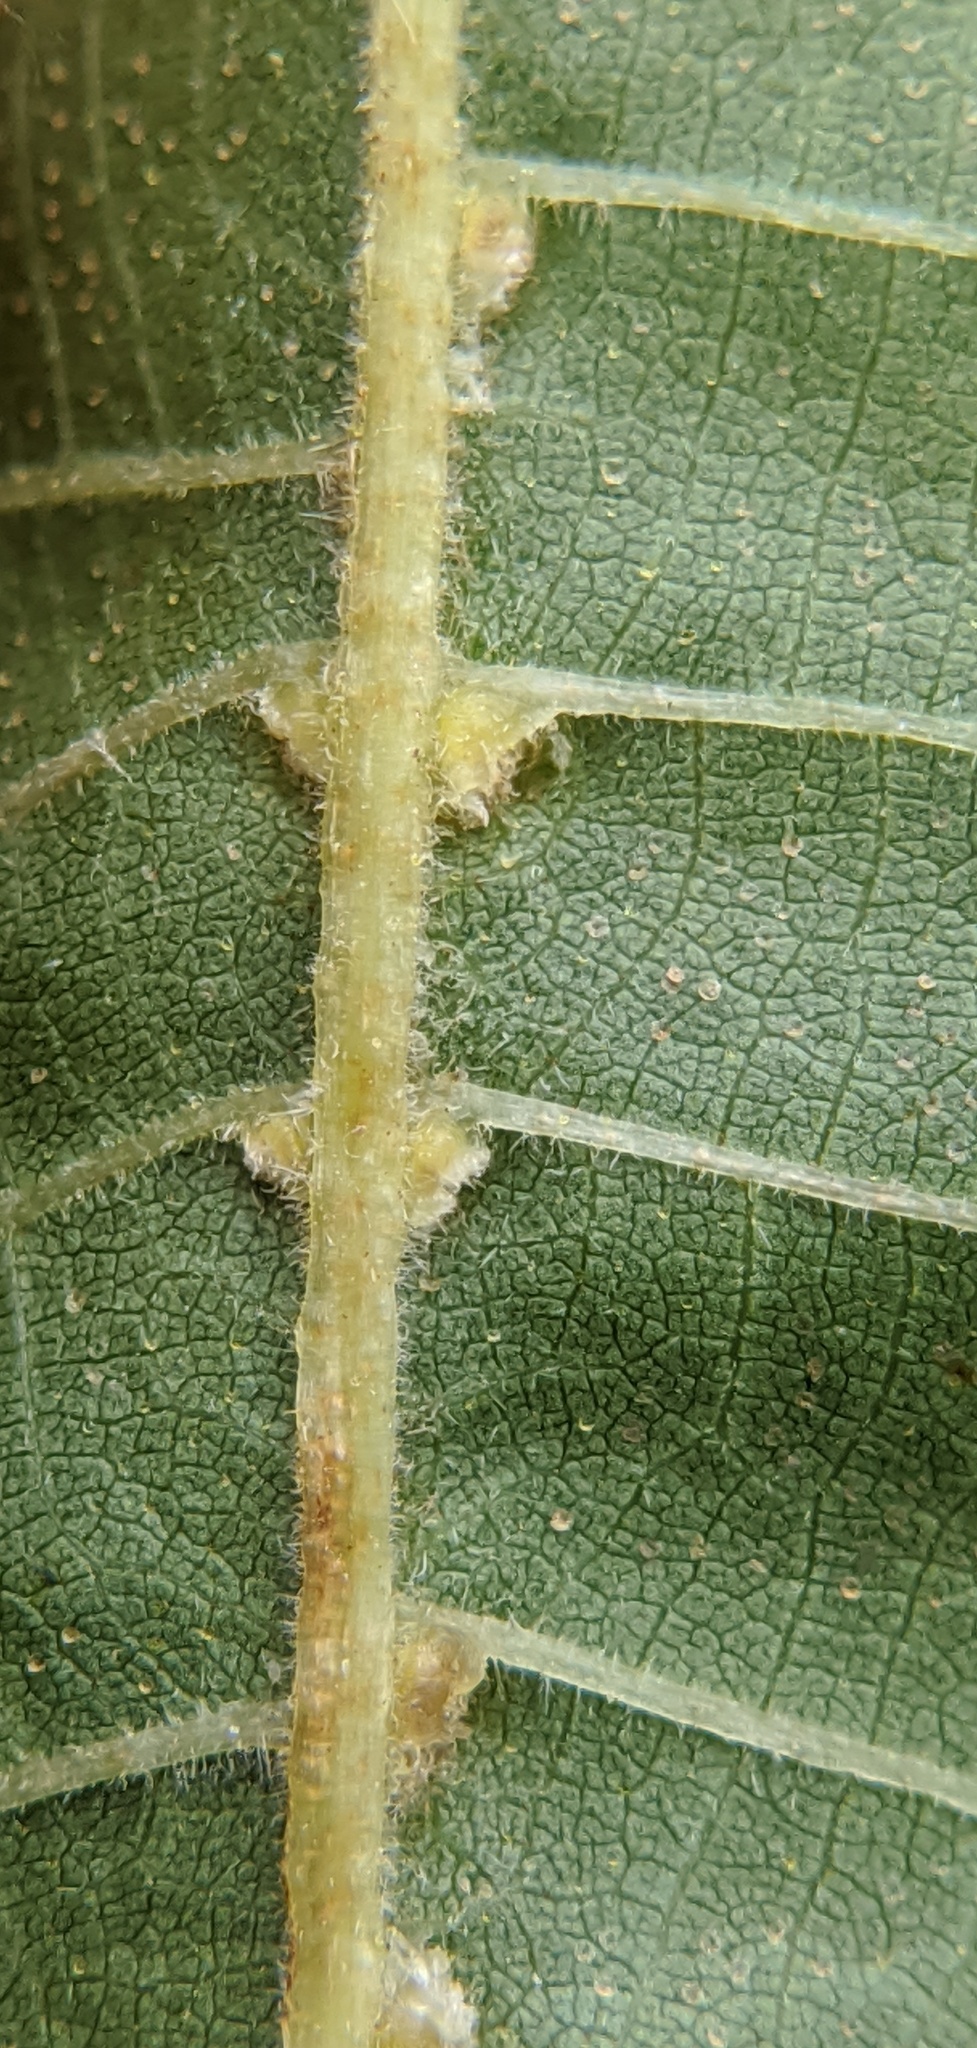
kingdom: Animalia
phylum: Arthropoda
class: Arachnida
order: Trombidiformes
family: Eriophyidae
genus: Aceria
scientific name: Aceria
